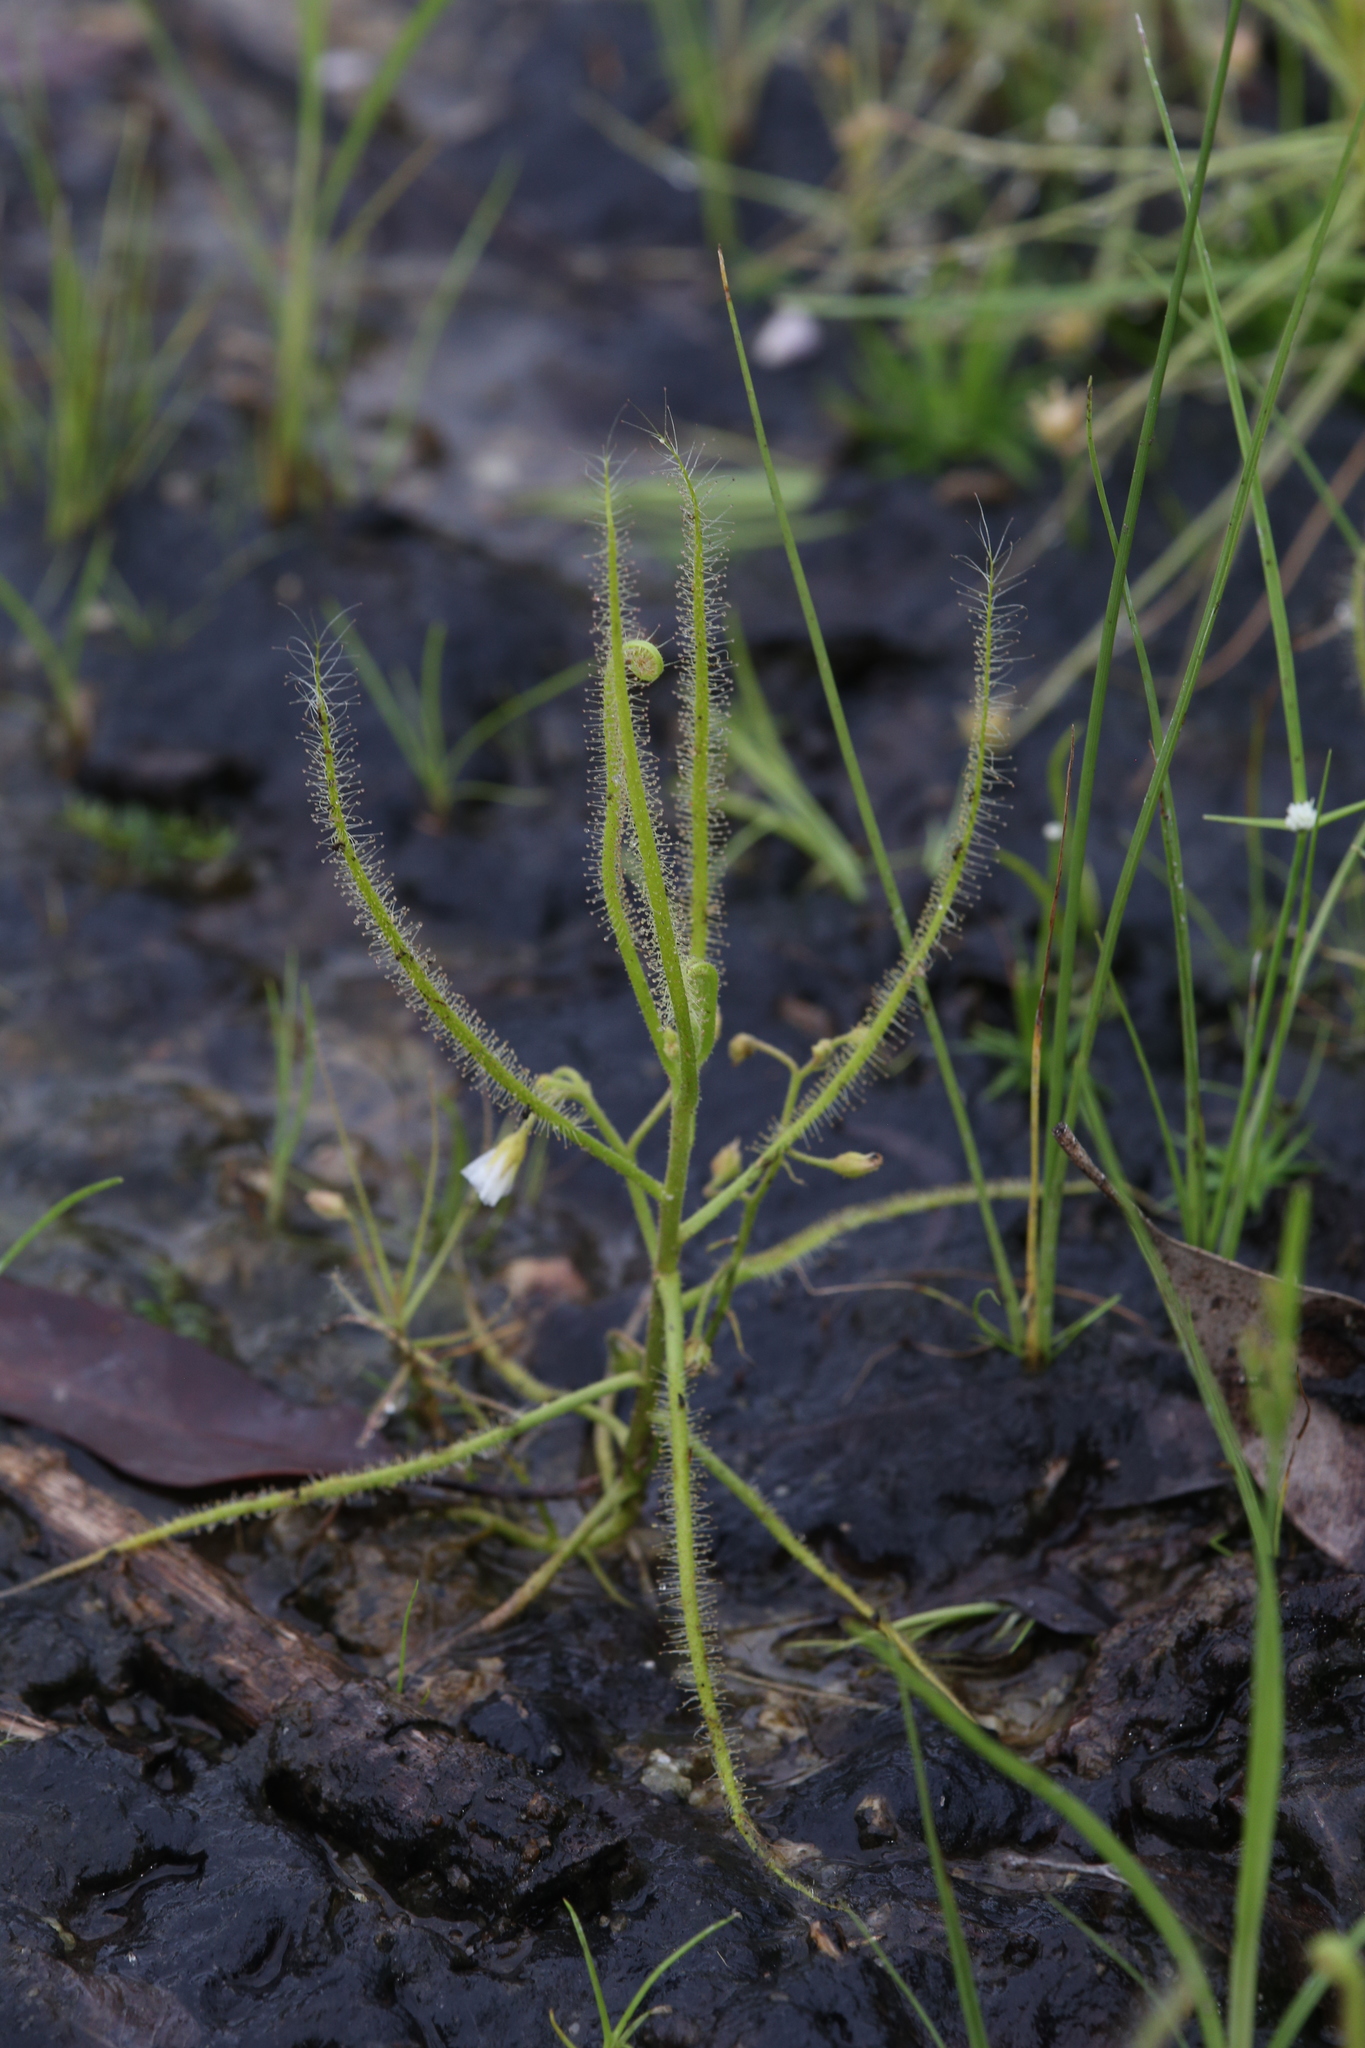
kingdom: Plantae
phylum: Tracheophyta
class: Magnoliopsida
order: Caryophyllales
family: Droseraceae
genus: Drosera
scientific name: Drosera indica
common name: Indian sundew
